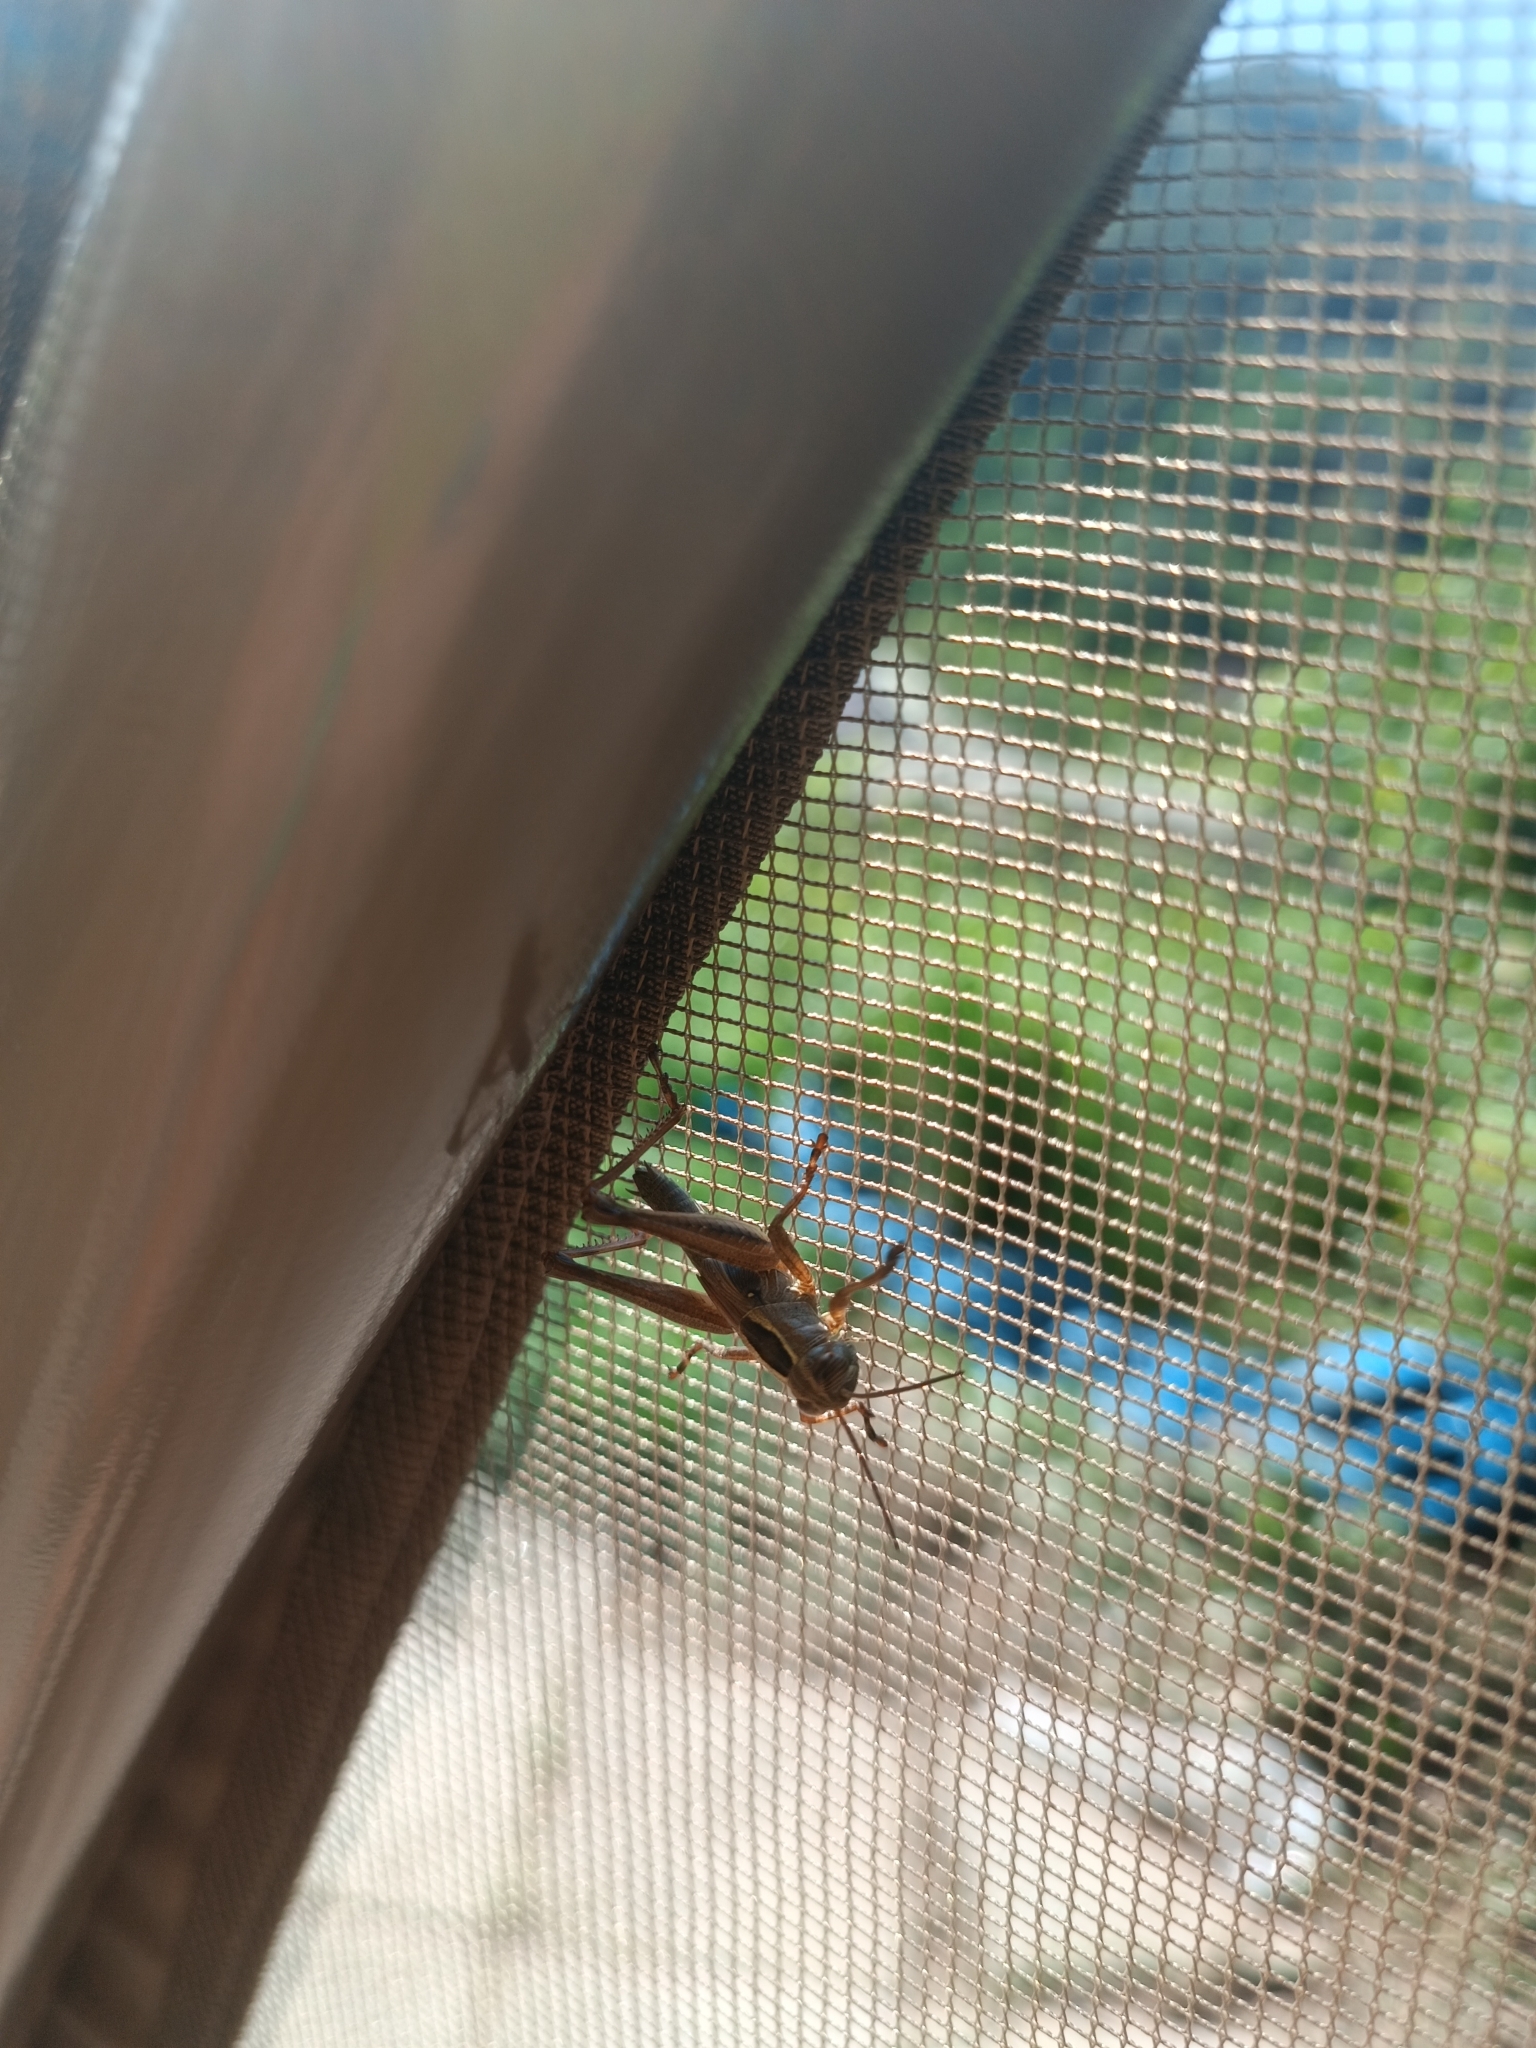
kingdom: Animalia
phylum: Arthropoda
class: Insecta
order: Orthoptera
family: Acrididae
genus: Eyprepocnemis
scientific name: Eyprepocnemis plorans
